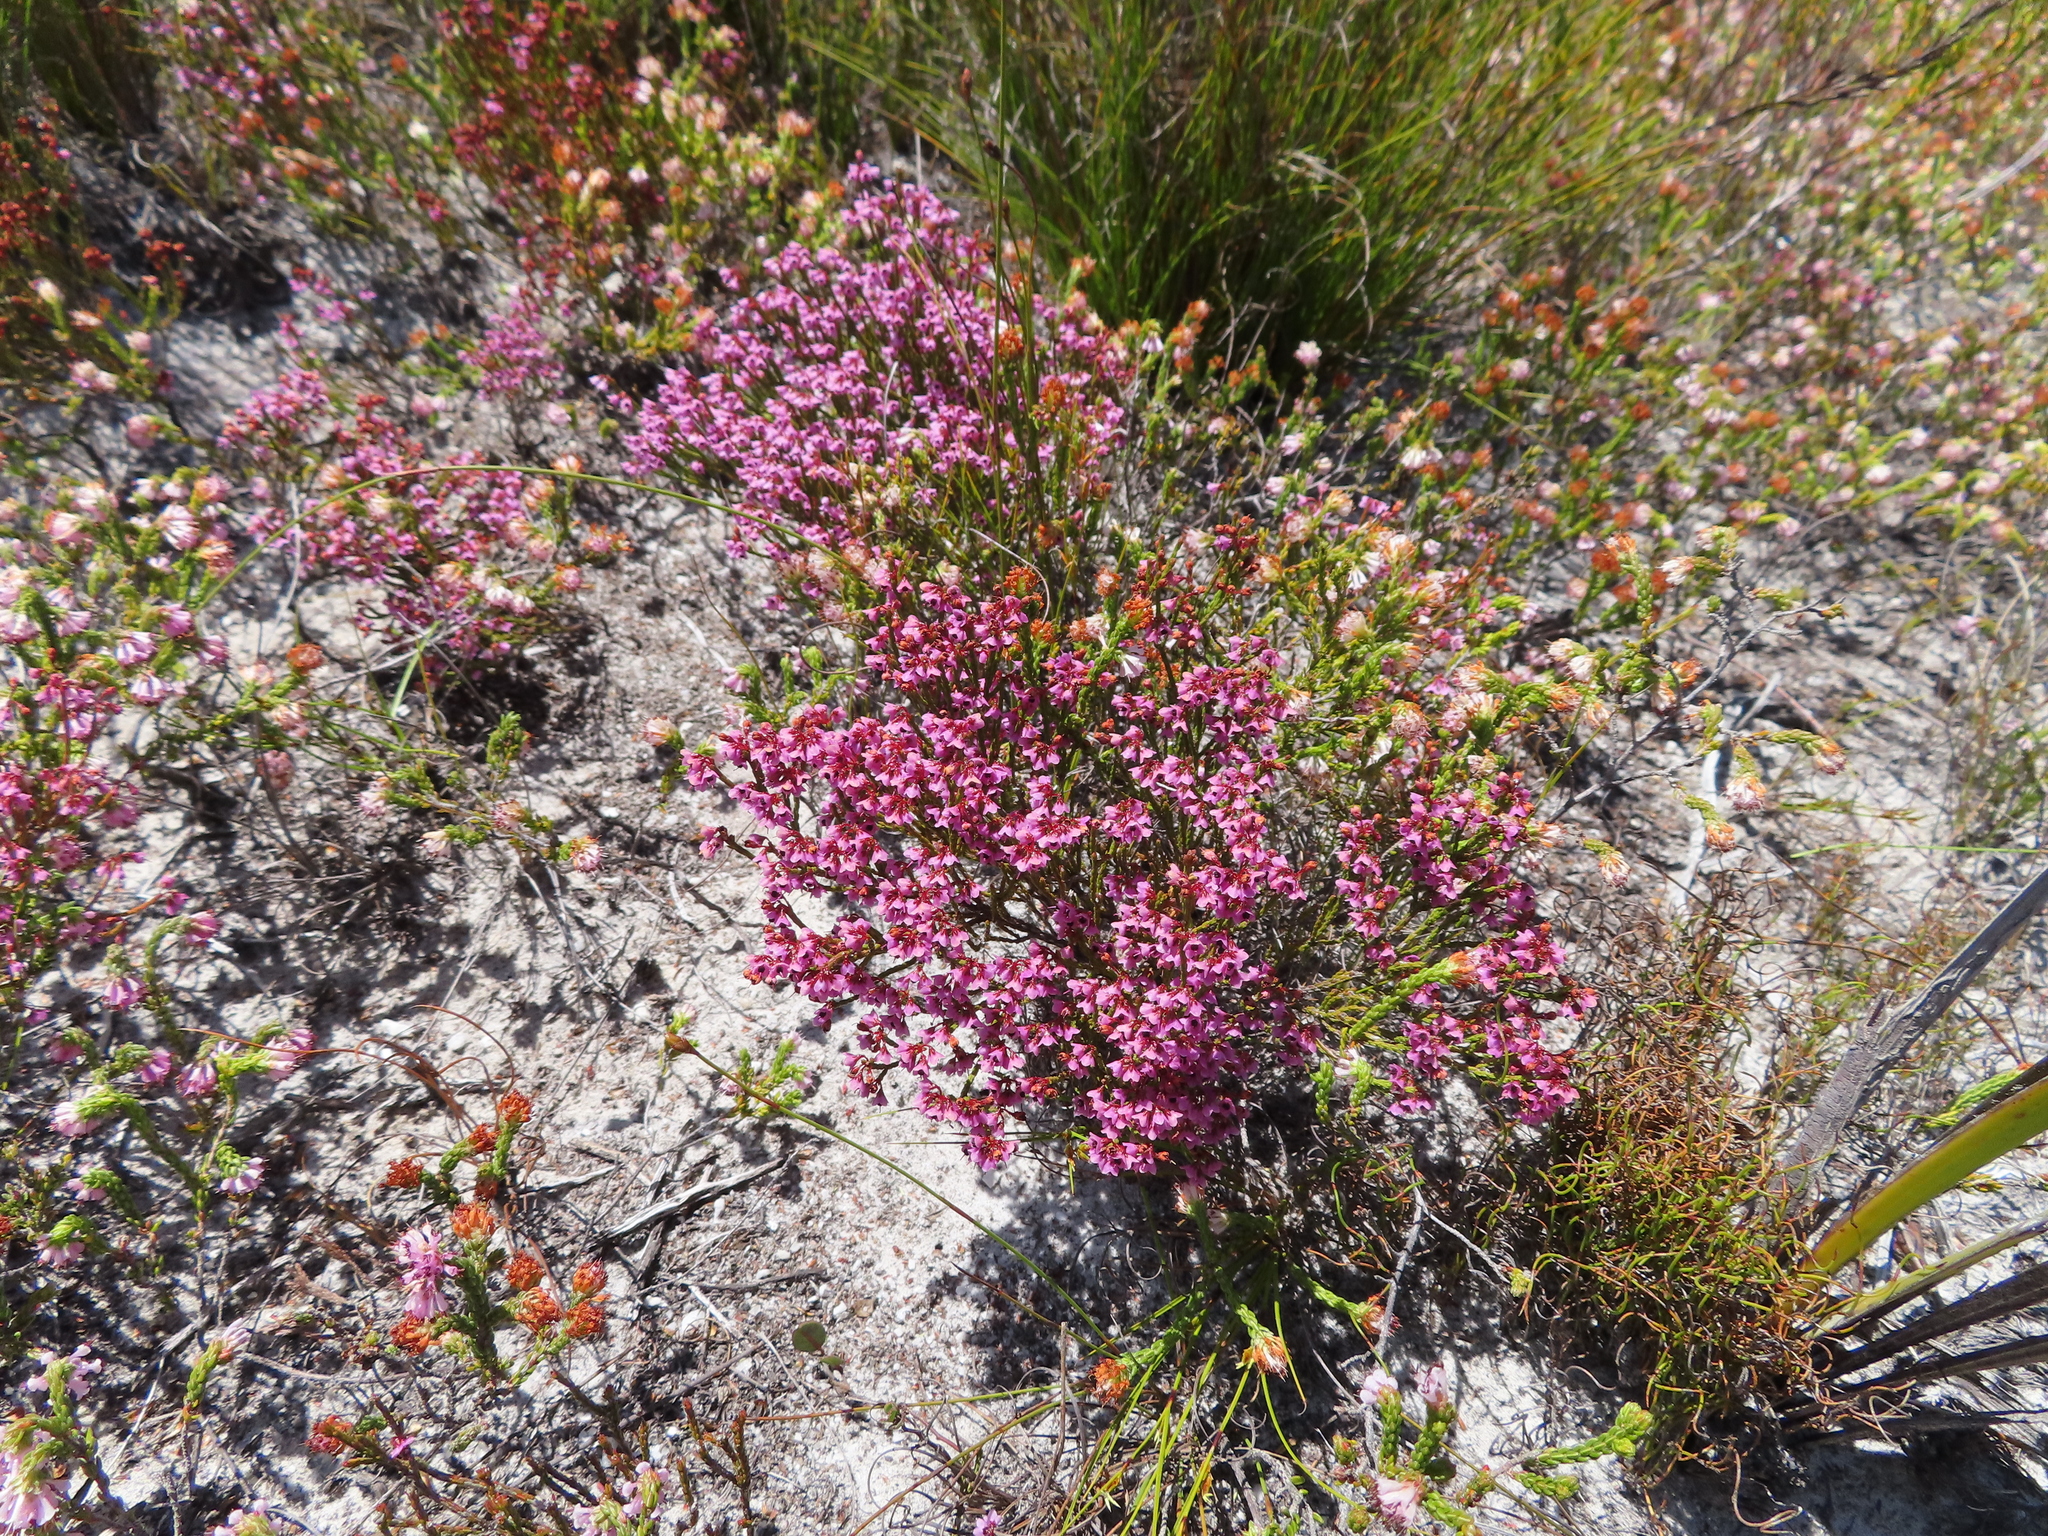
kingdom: Plantae
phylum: Tracheophyta
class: Magnoliopsida
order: Ericales
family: Ericaceae
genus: Erica
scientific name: Erica hermani
